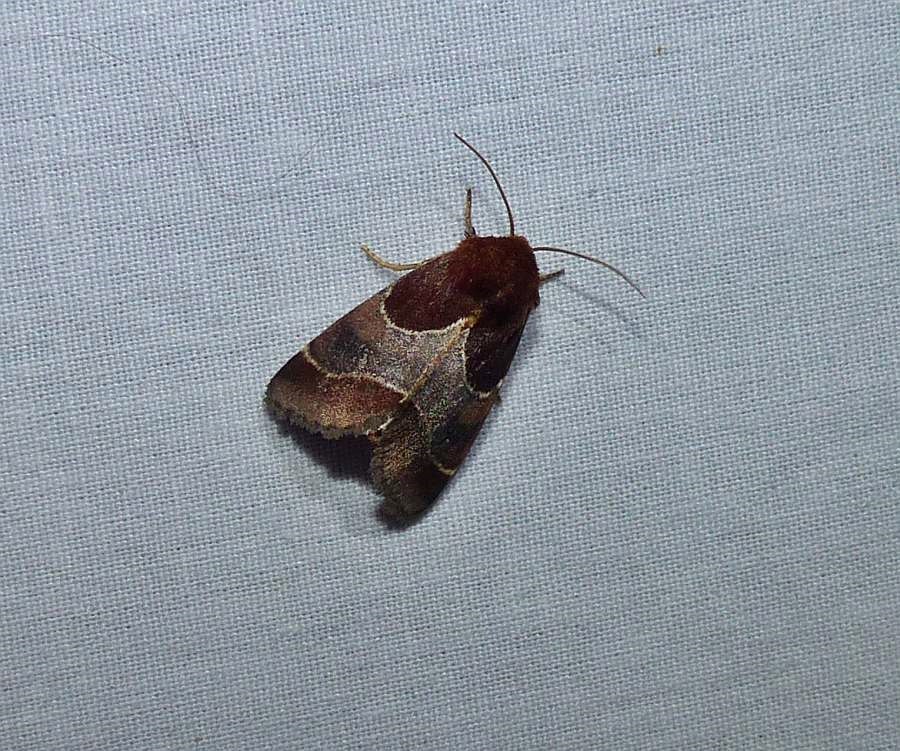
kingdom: Animalia
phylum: Arthropoda
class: Insecta
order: Lepidoptera
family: Noctuidae
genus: Schinia
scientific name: Schinia arcigera
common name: Arcigera flower moth
